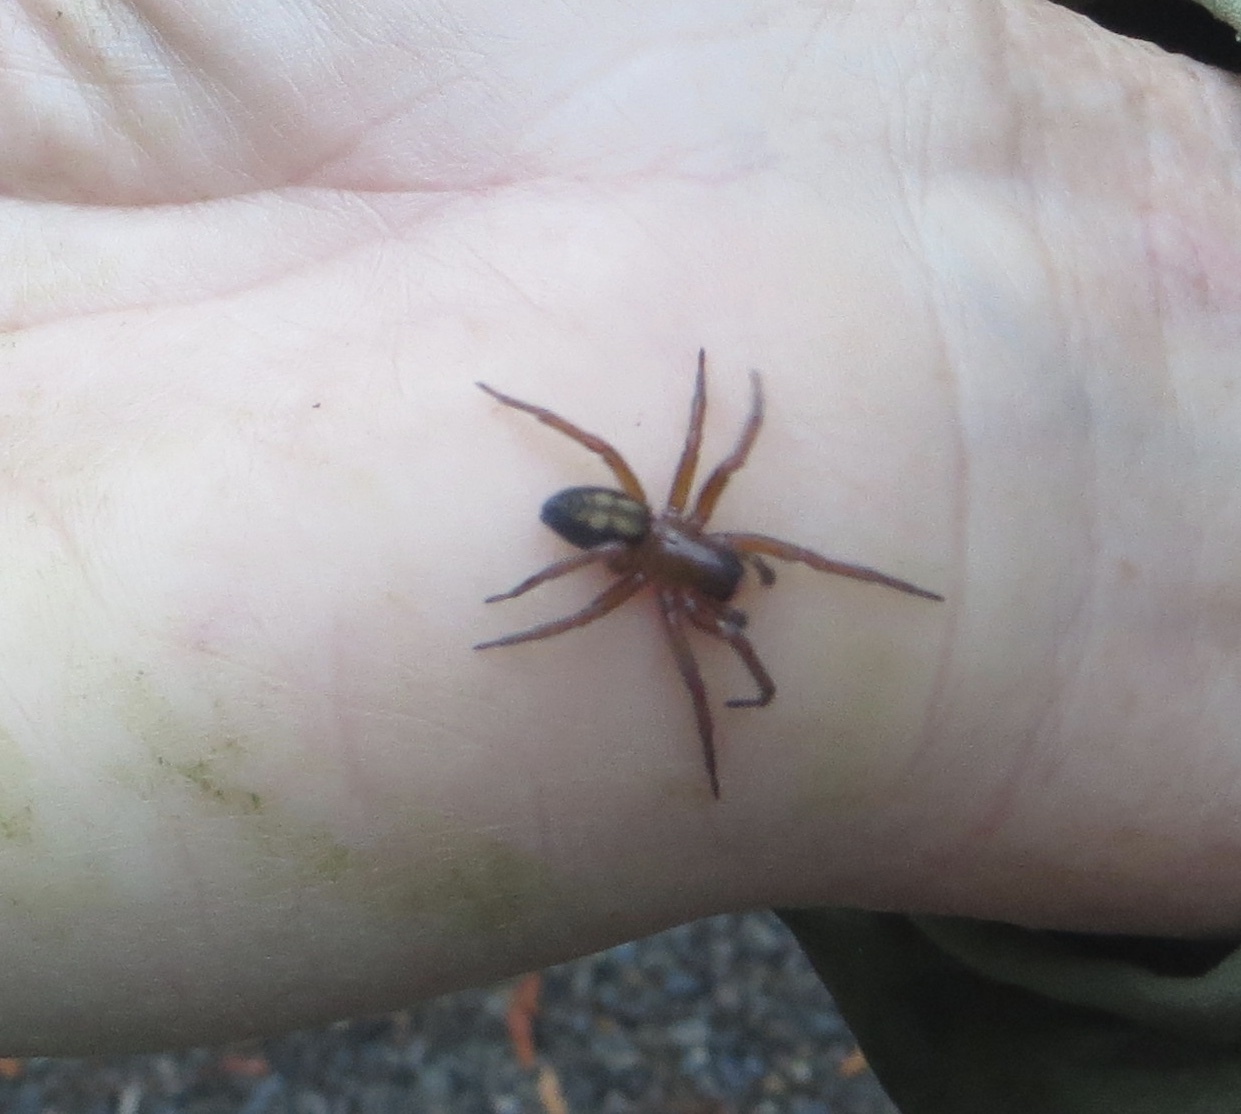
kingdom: Animalia
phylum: Arthropoda
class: Arachnida
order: Araneae
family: Amaurobiidae
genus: Callobius
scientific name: Callobius severus
